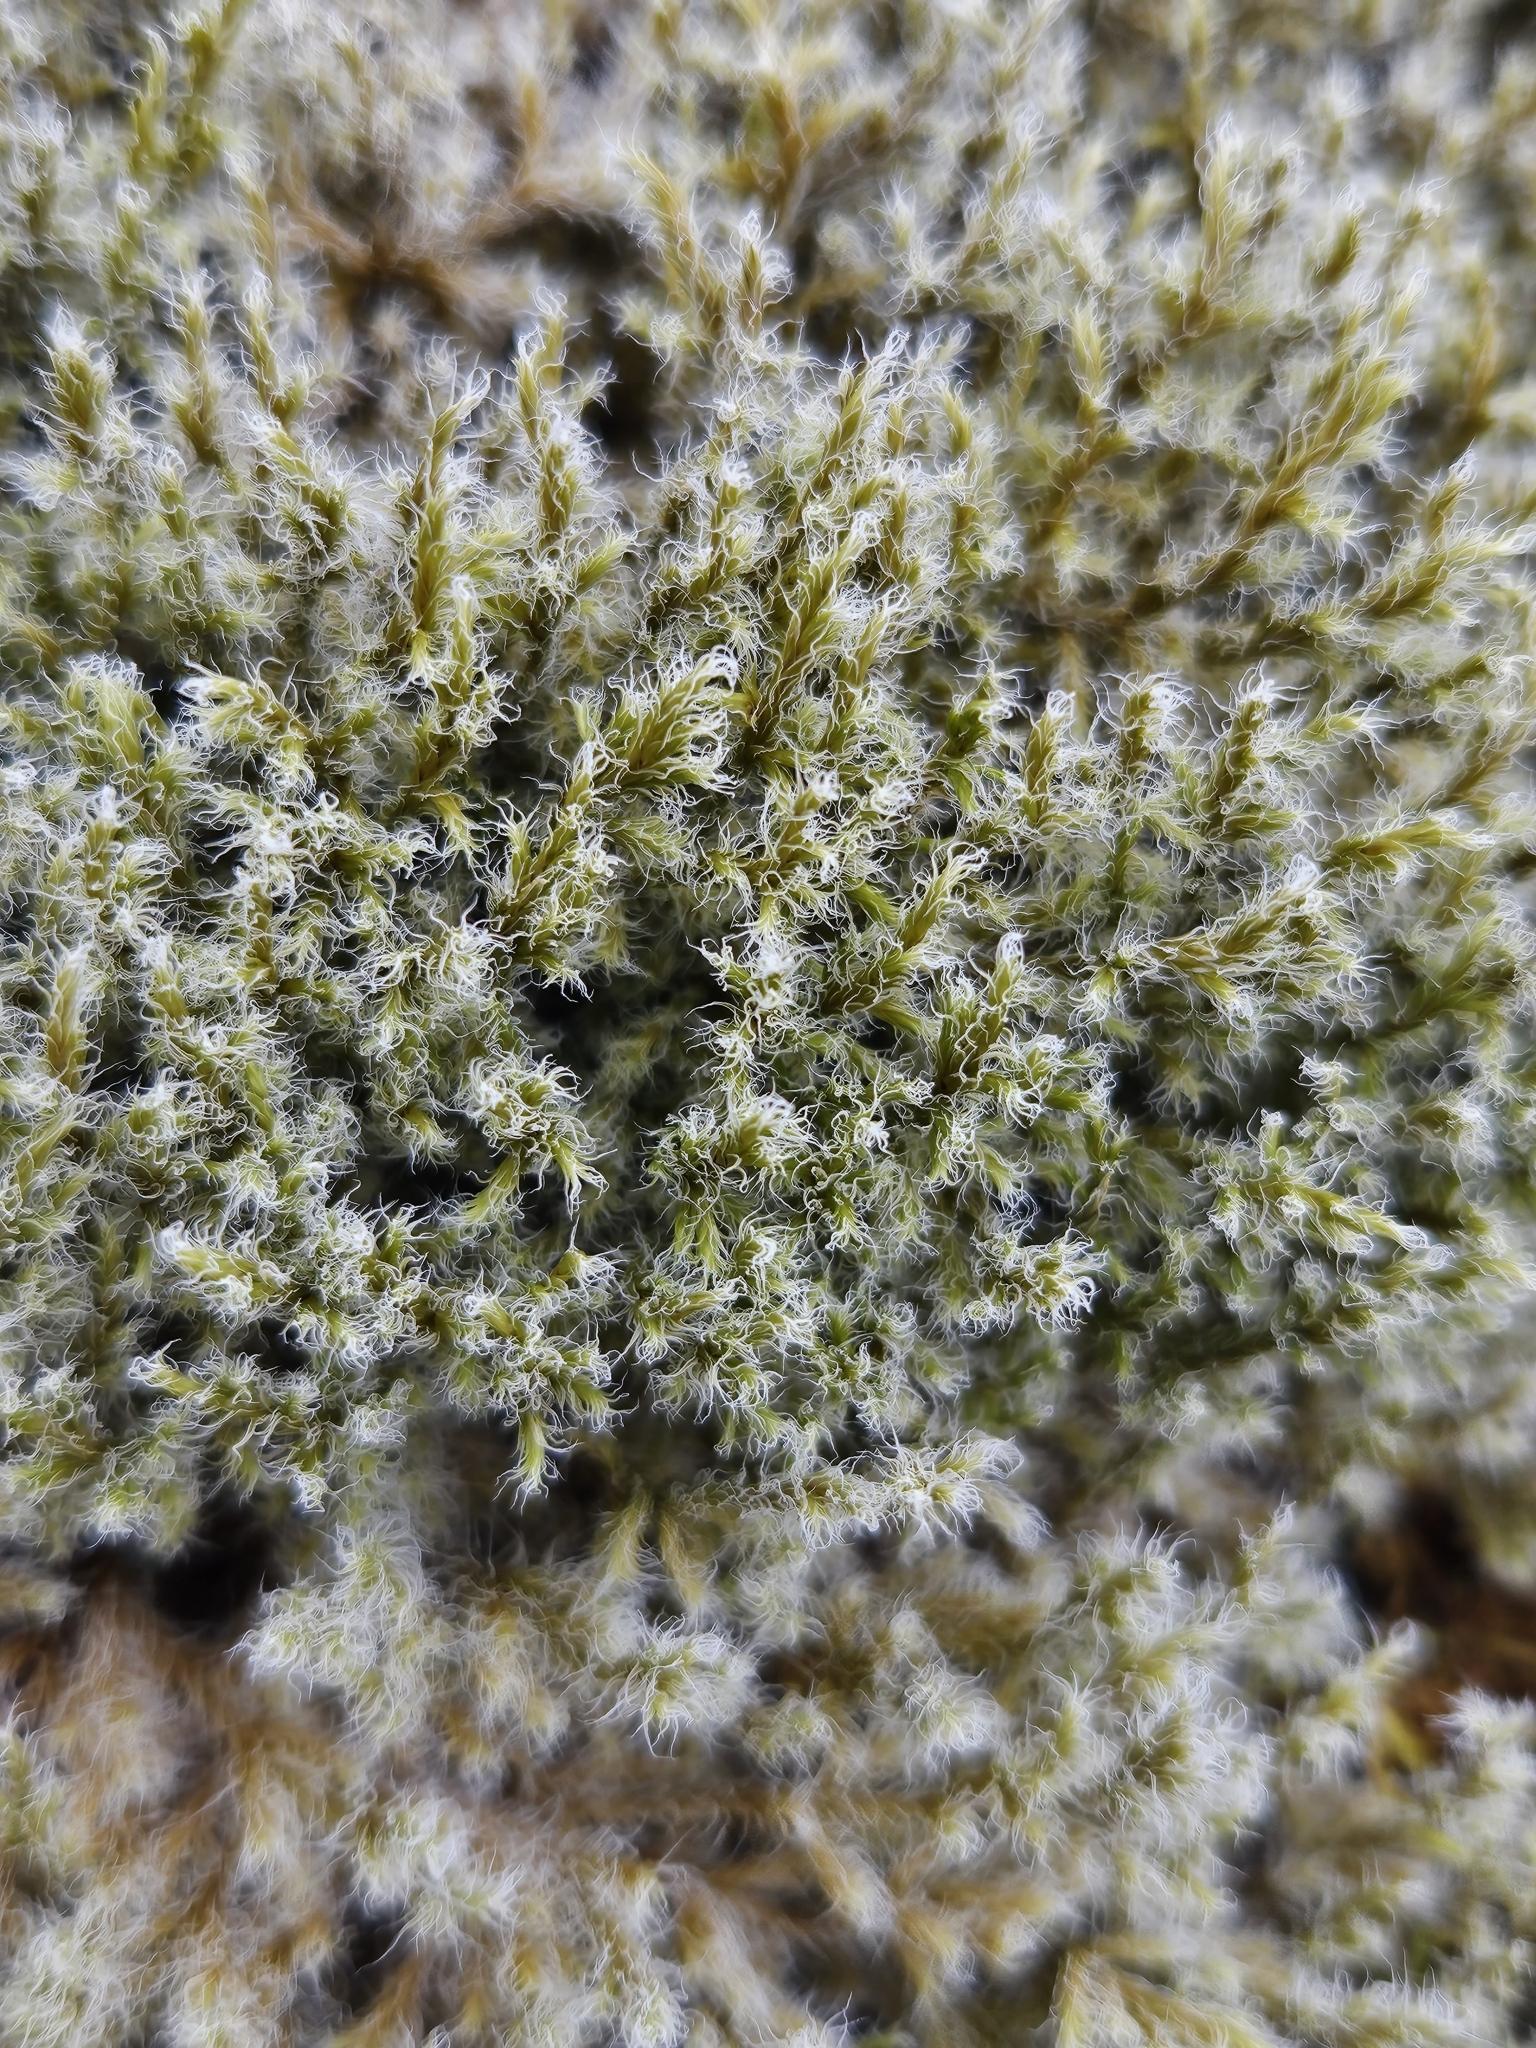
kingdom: Plantae
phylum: Bryophyta
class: Bryopsida
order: Grimmiales
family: Grimmiaceae
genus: Racomitrium
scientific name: Racomitrium lanuginosum
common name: Hoary rock moss
